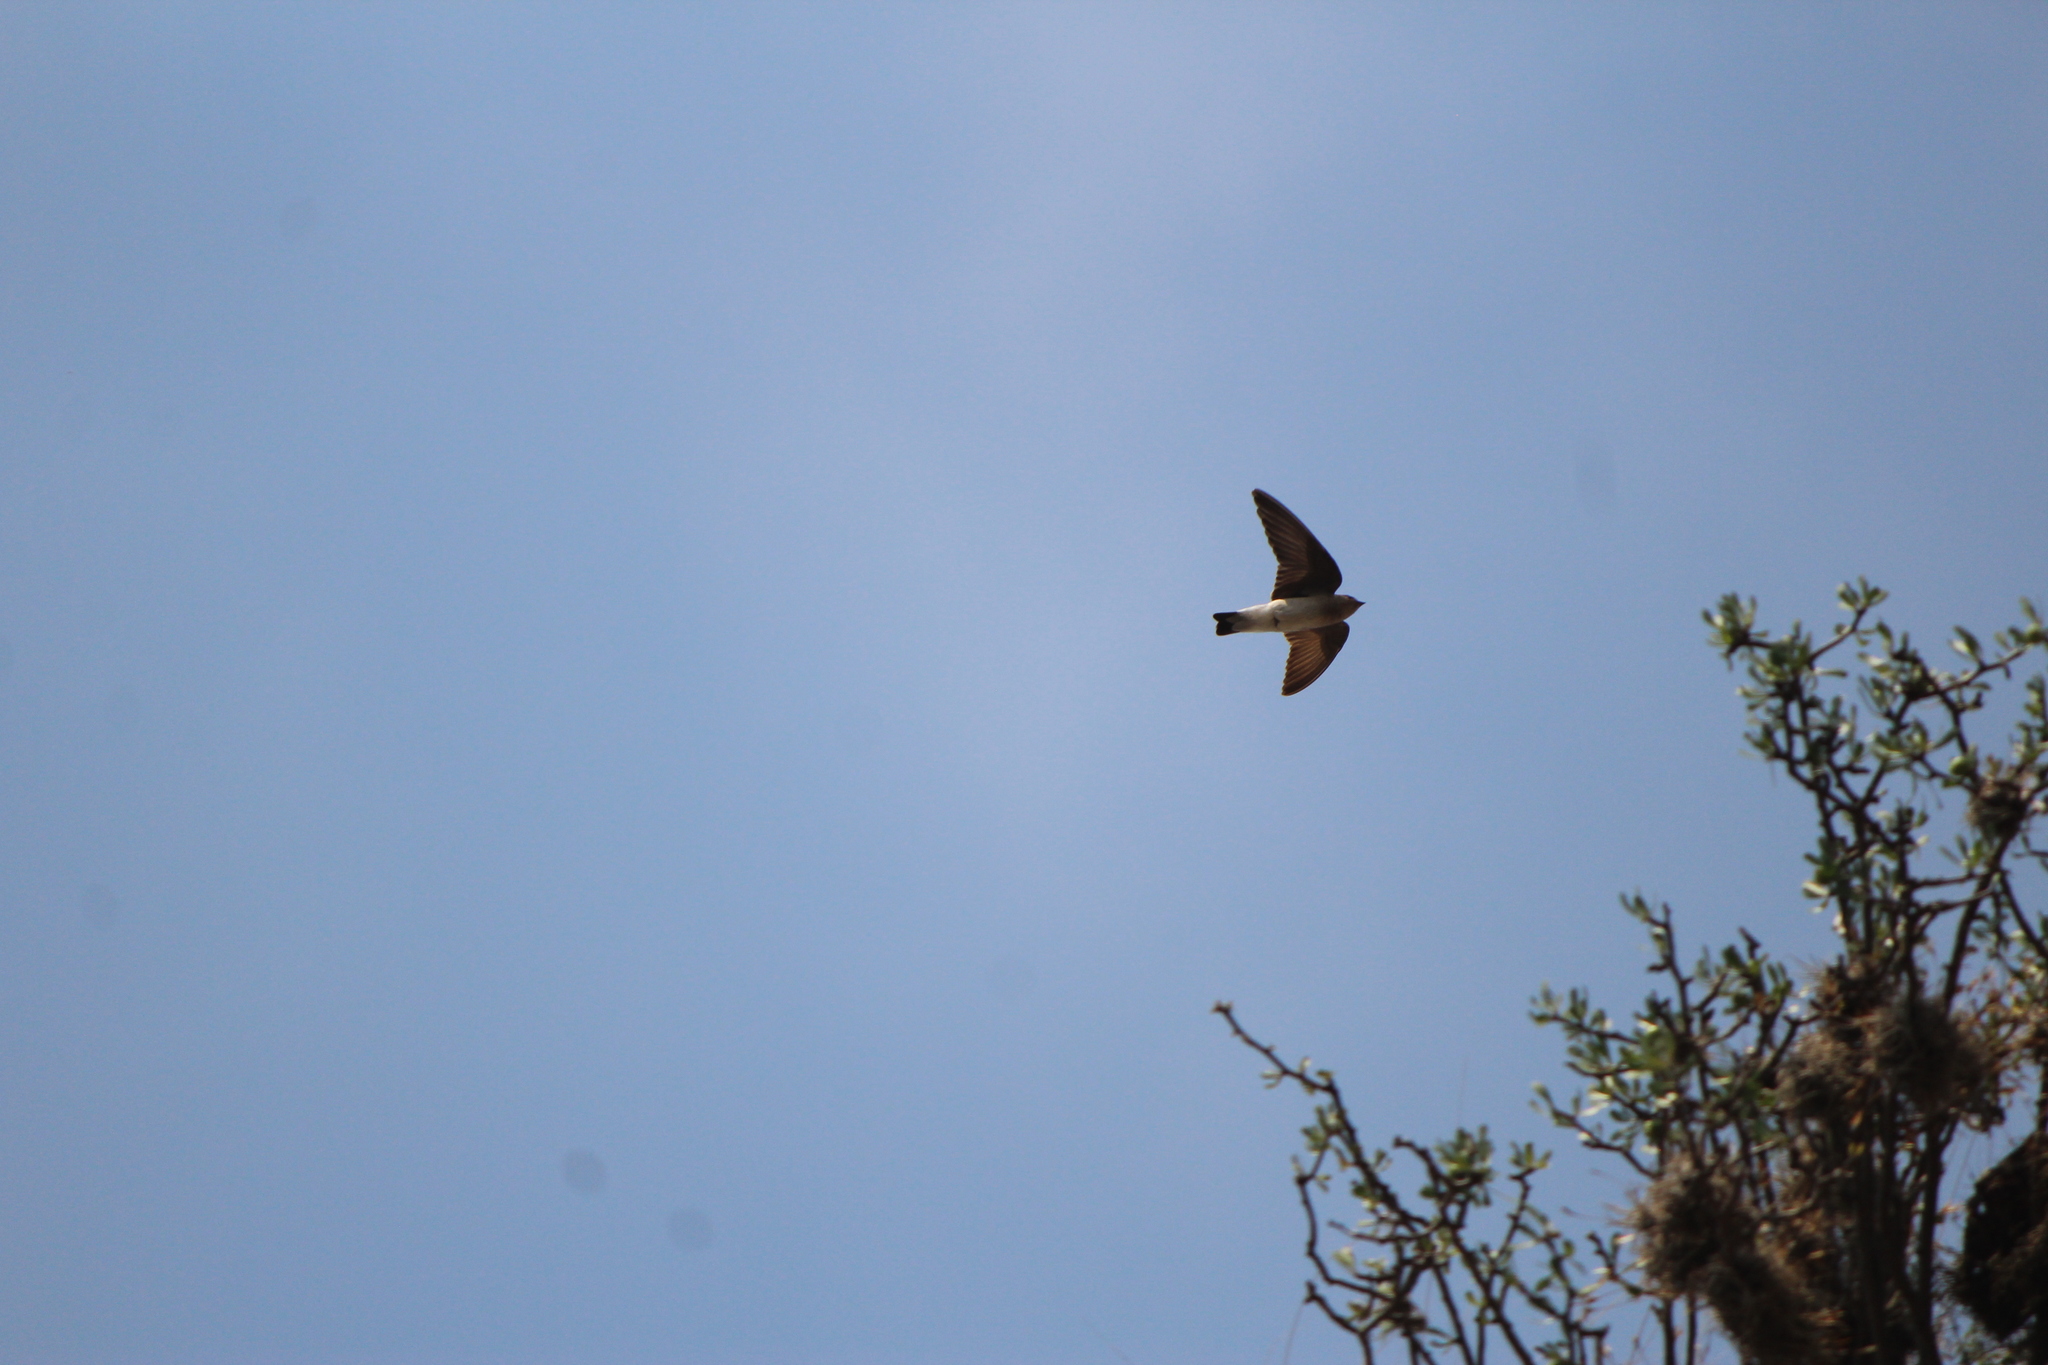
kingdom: Animalia
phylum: Chordata
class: Aves
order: Passeriformes
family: Hirundinidae
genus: Stelgidopteryx
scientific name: Stelgidopteryx serripennis
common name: Northern rough-winged swallow
